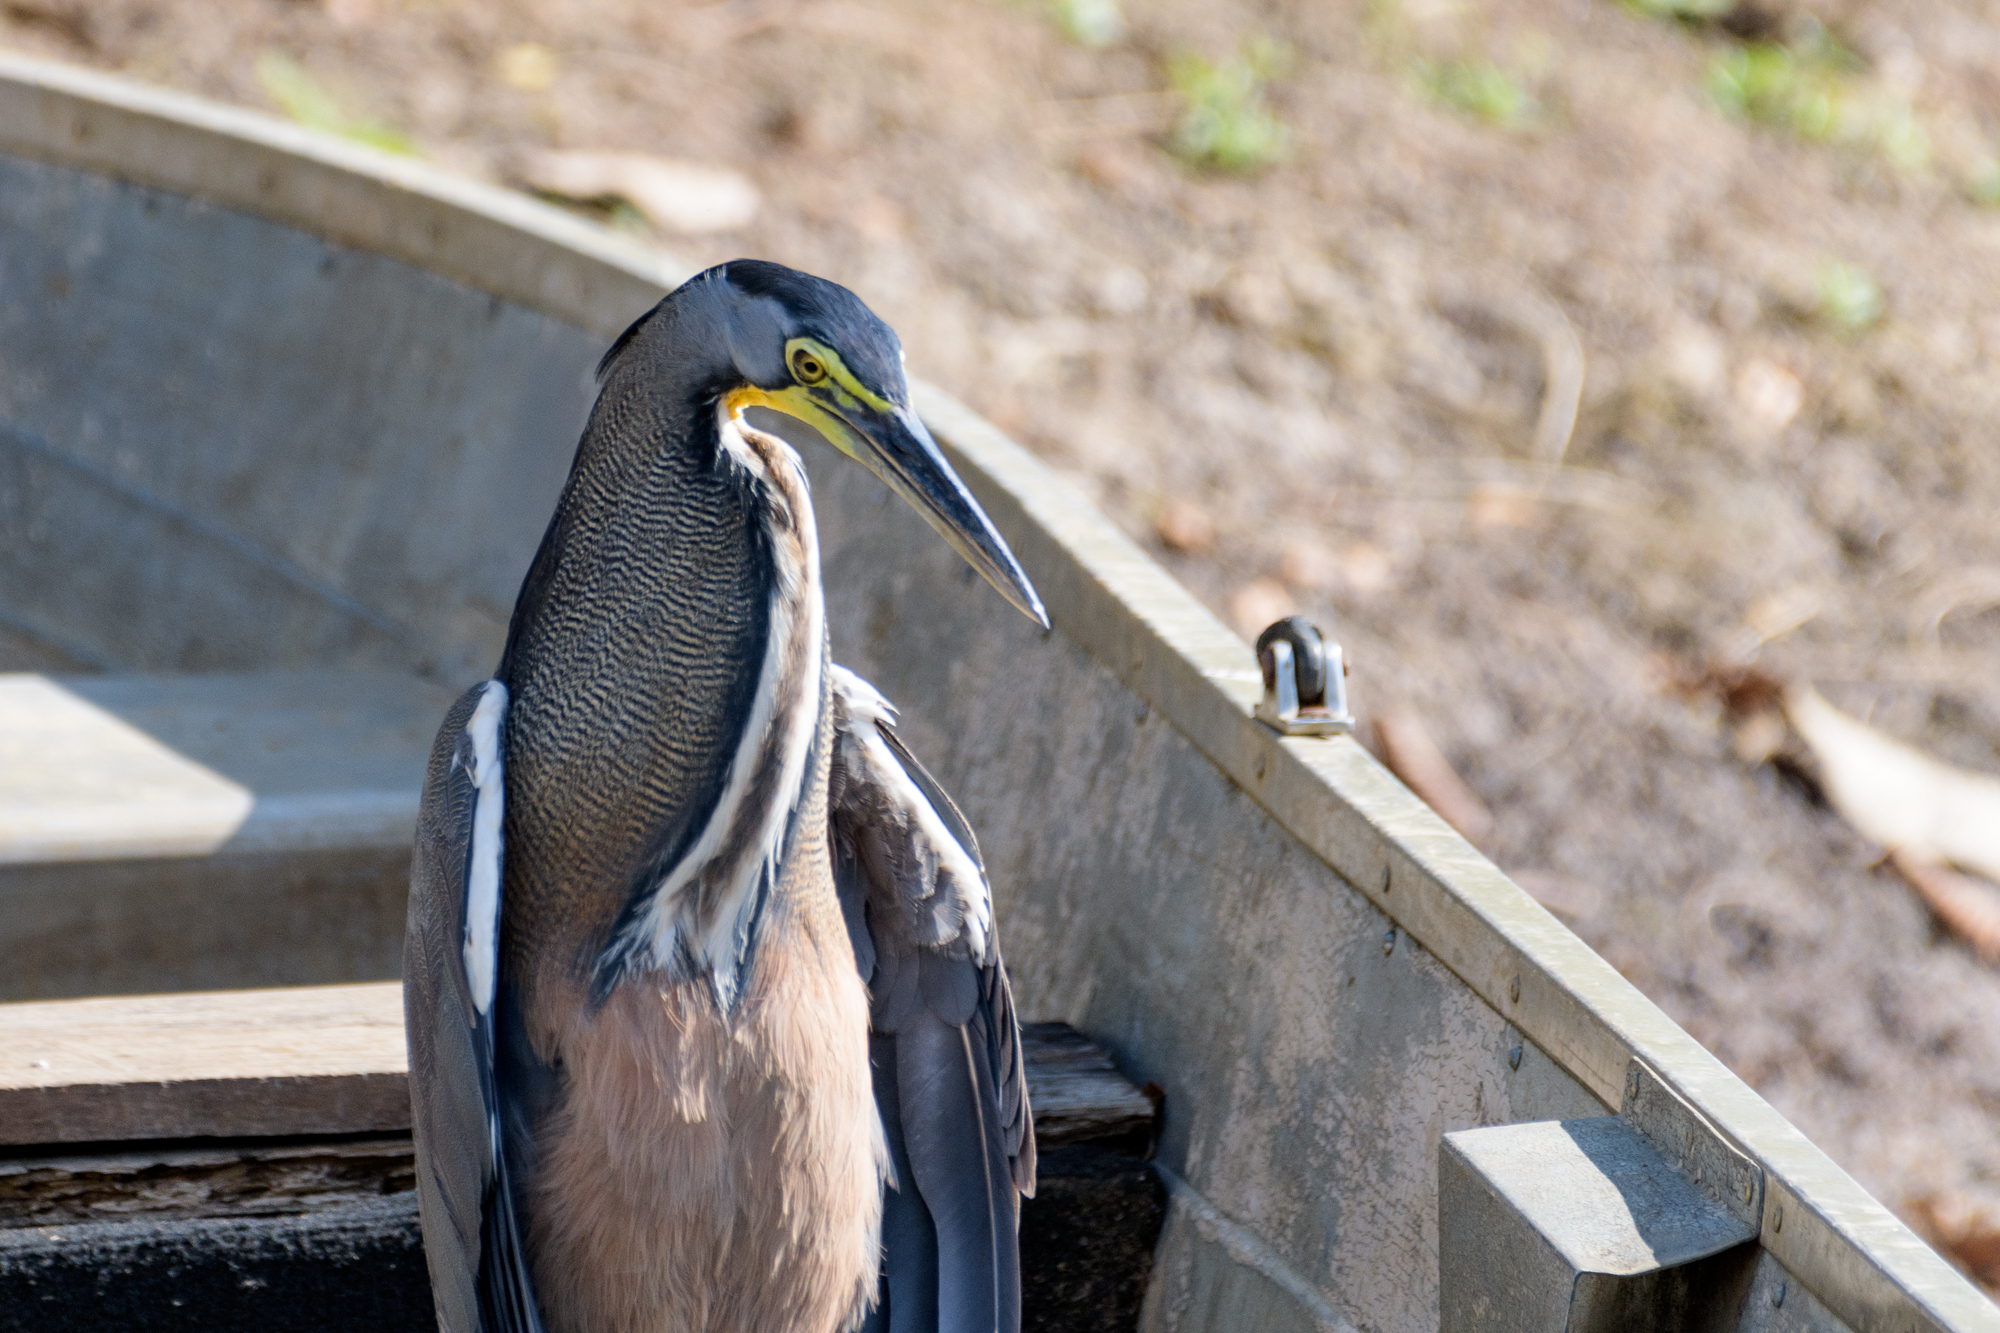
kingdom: Animalia
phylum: Chordata
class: Aves
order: Pelecaniformes
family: Ardeidae
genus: Tigrisoma
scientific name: Tigrisoma mexicanum
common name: Bare-throated tiger-heron
